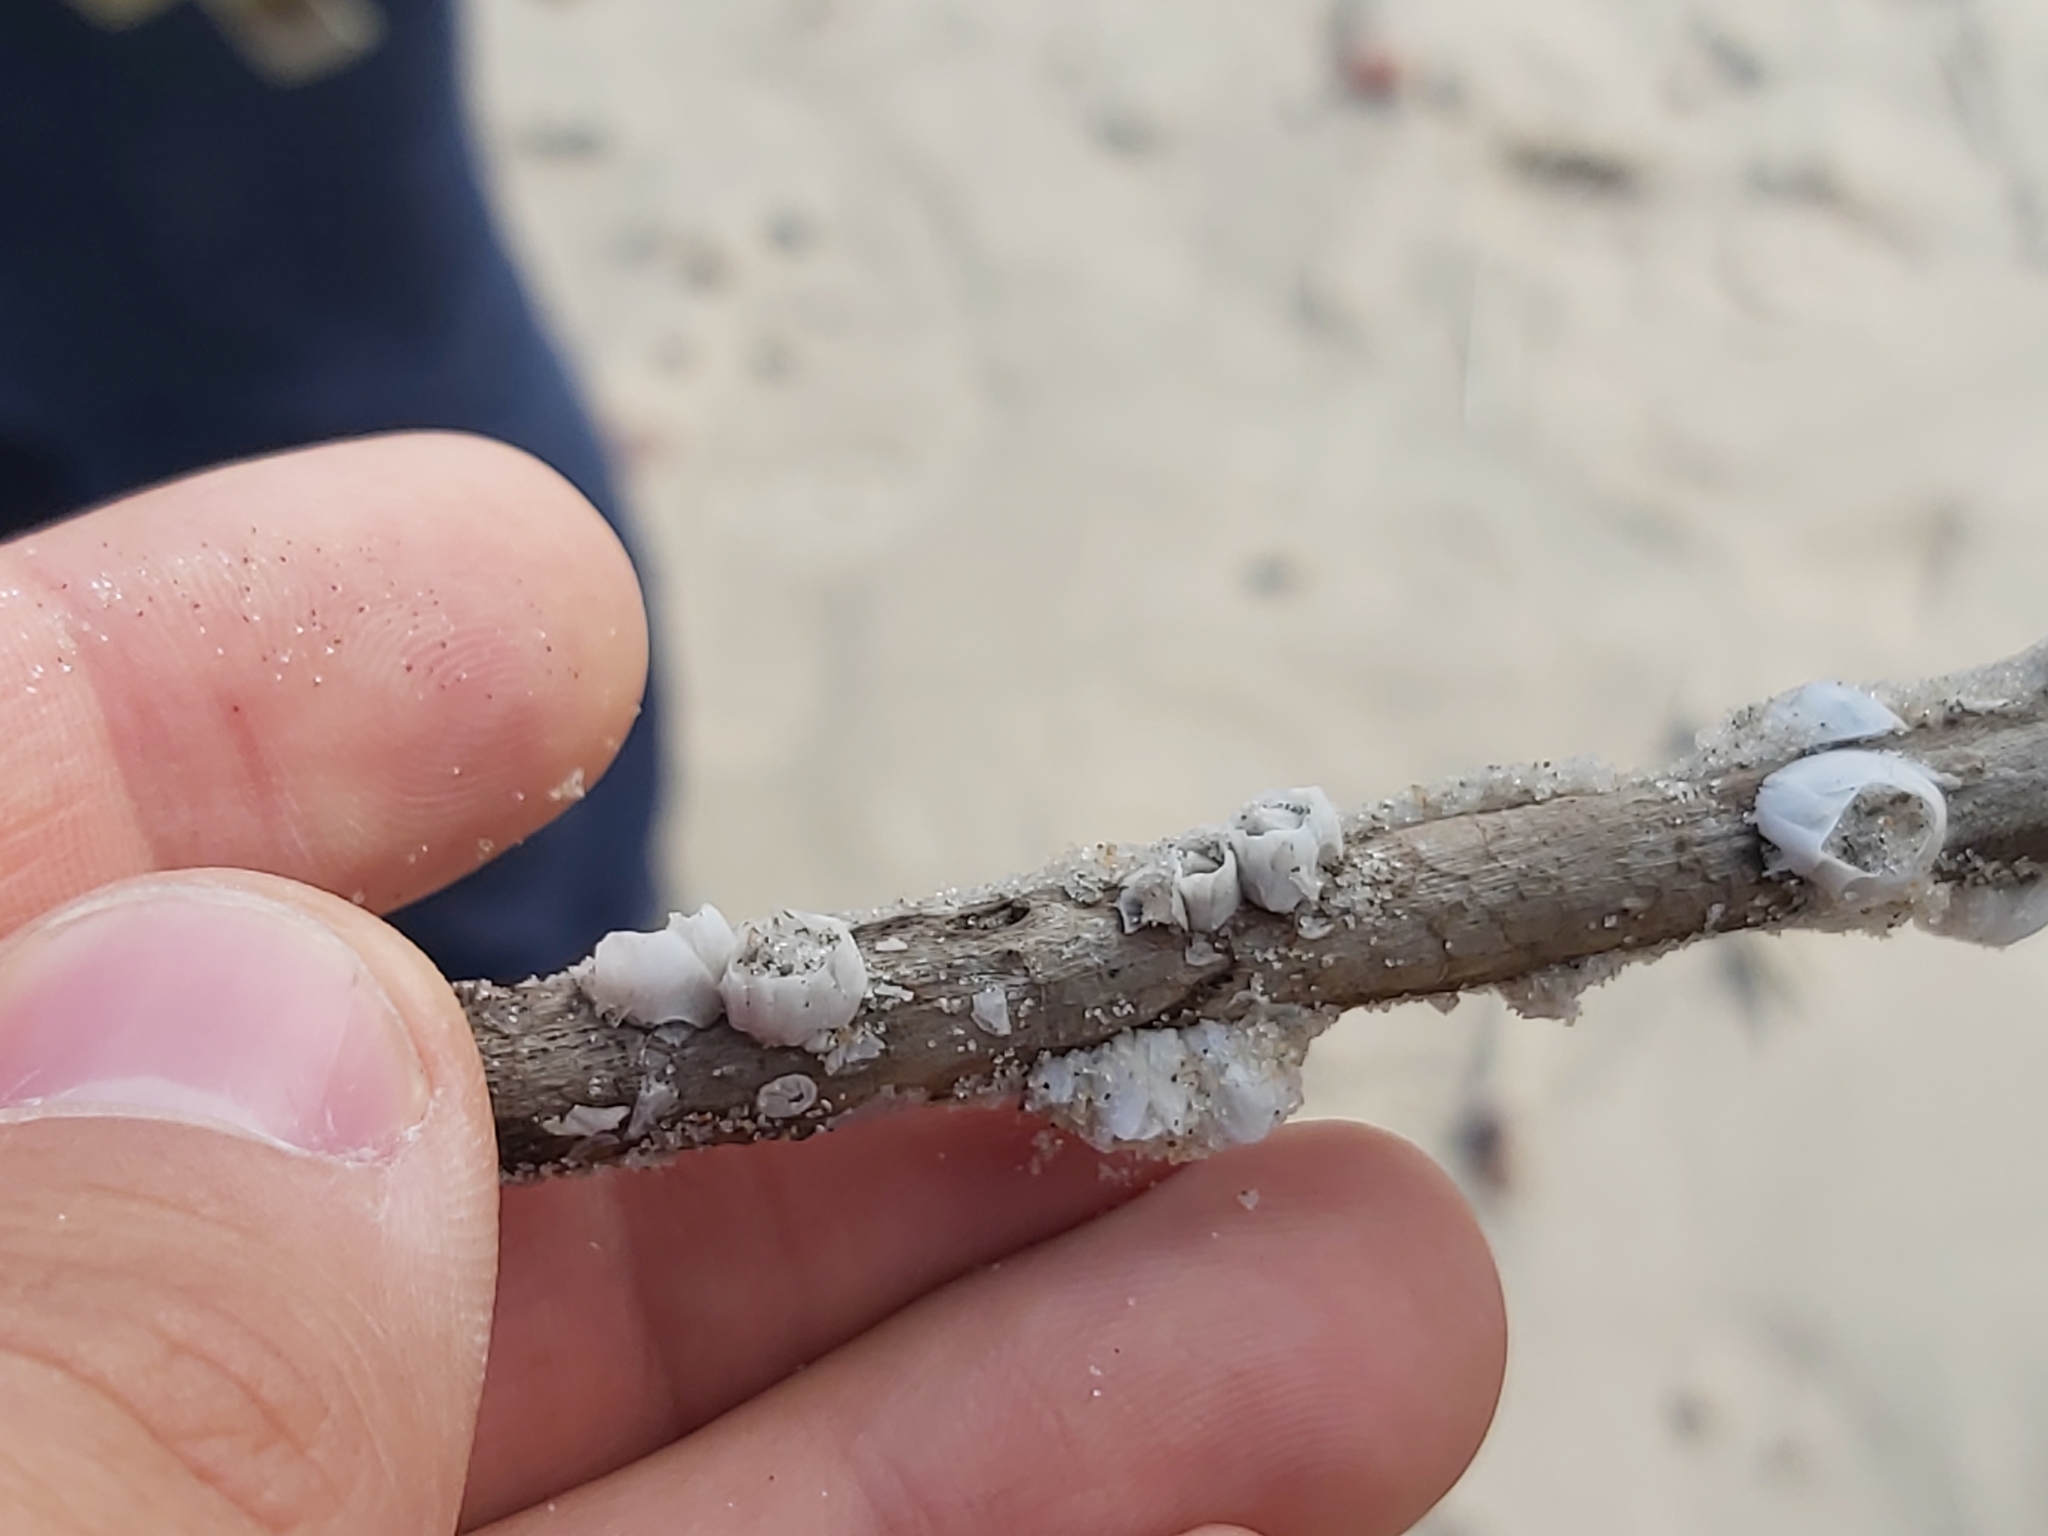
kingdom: Animalia
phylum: Arthropoda
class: Maxillopoda
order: Sessilia
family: Balanidae
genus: Amphibalanus
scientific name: Amphibalanus improvisus
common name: Bay barnacle
